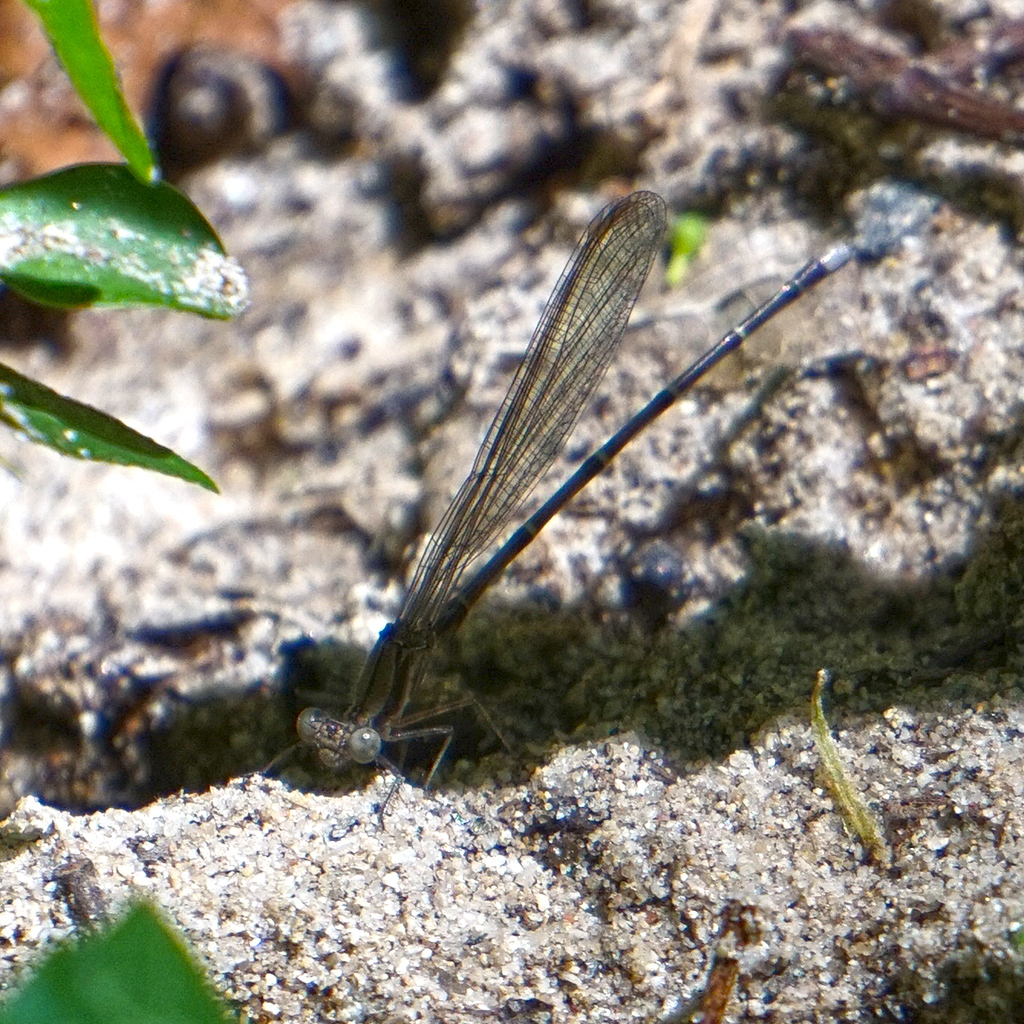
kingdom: Animalia
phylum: Arthropoda
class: Insecta
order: Odonata
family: Coenagrionidae
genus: Argia
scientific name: Argia tibialis
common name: Blue-tipped dancer
